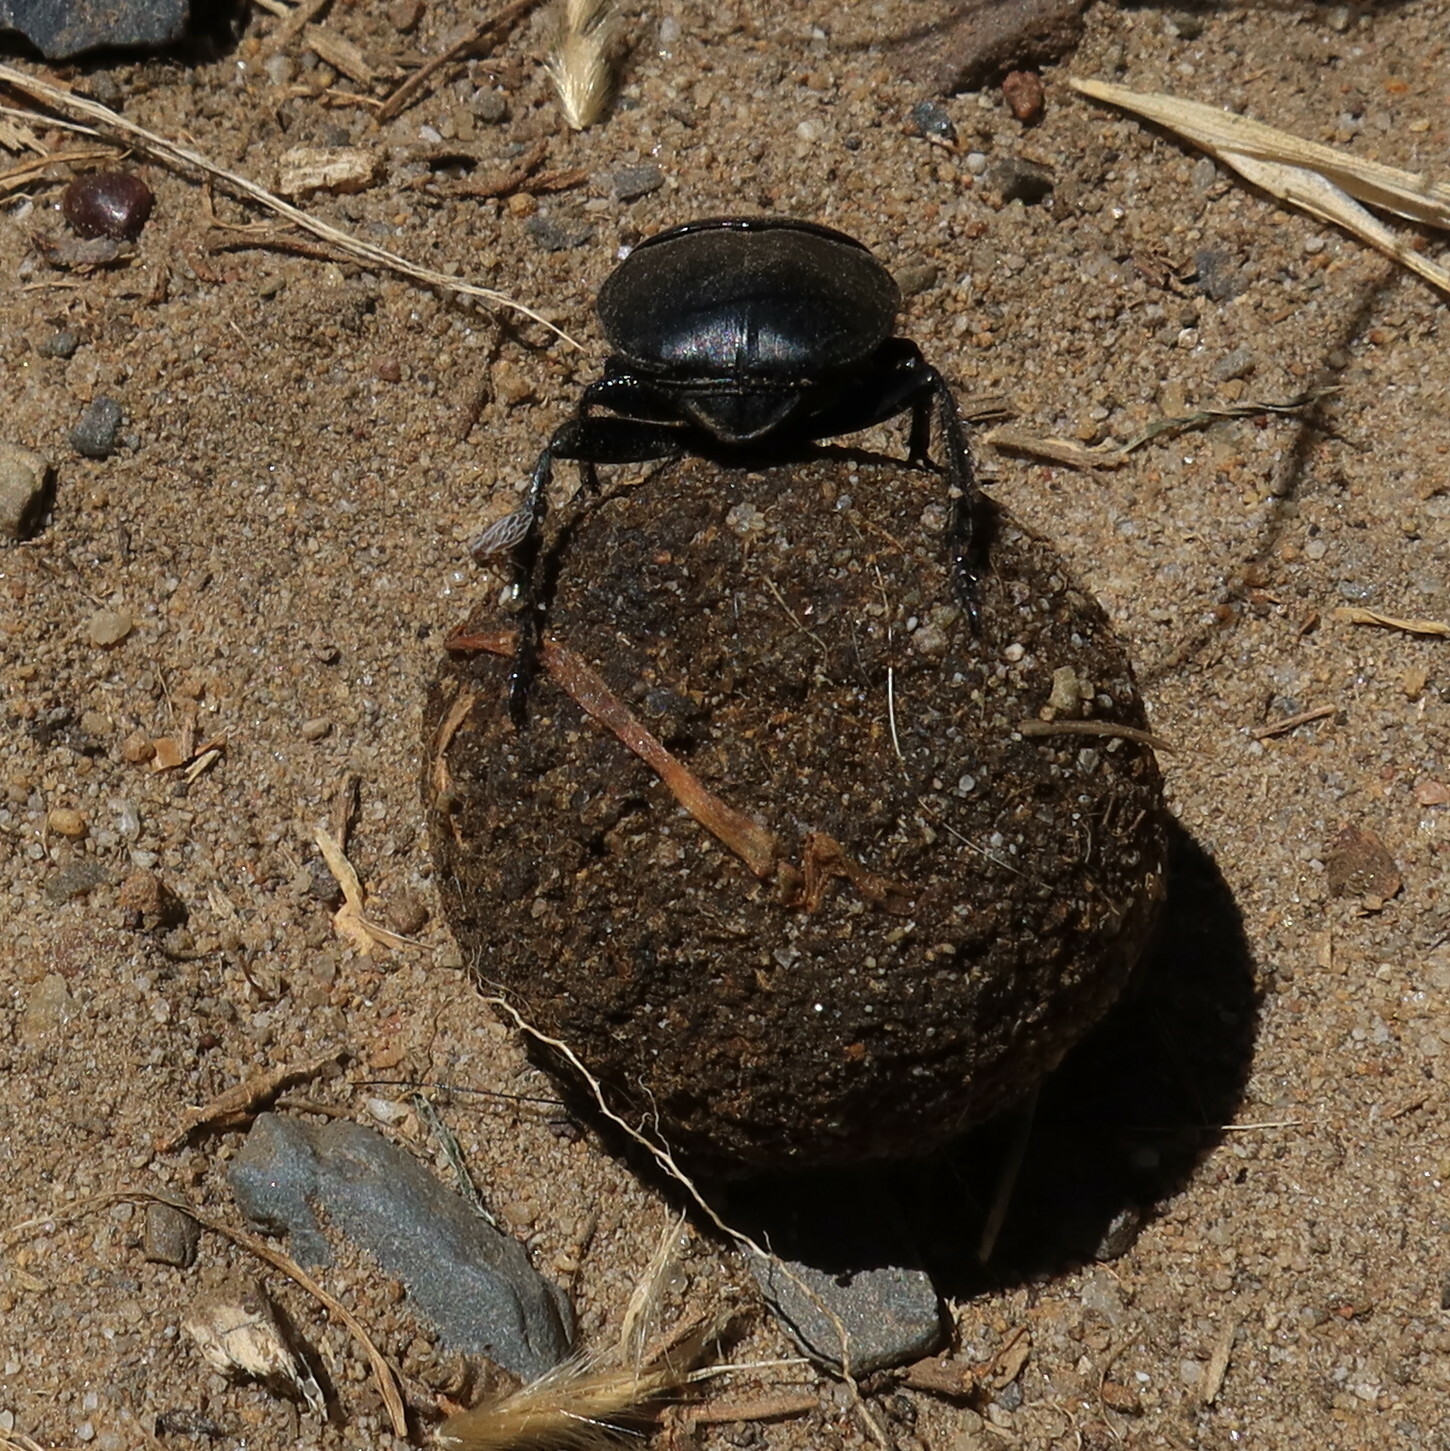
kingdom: Animalia
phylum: Arthropoda
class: Insecta
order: Coleoptera
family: Scarabaeidae
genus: Scarabaeus
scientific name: Scarabaeus convexus
